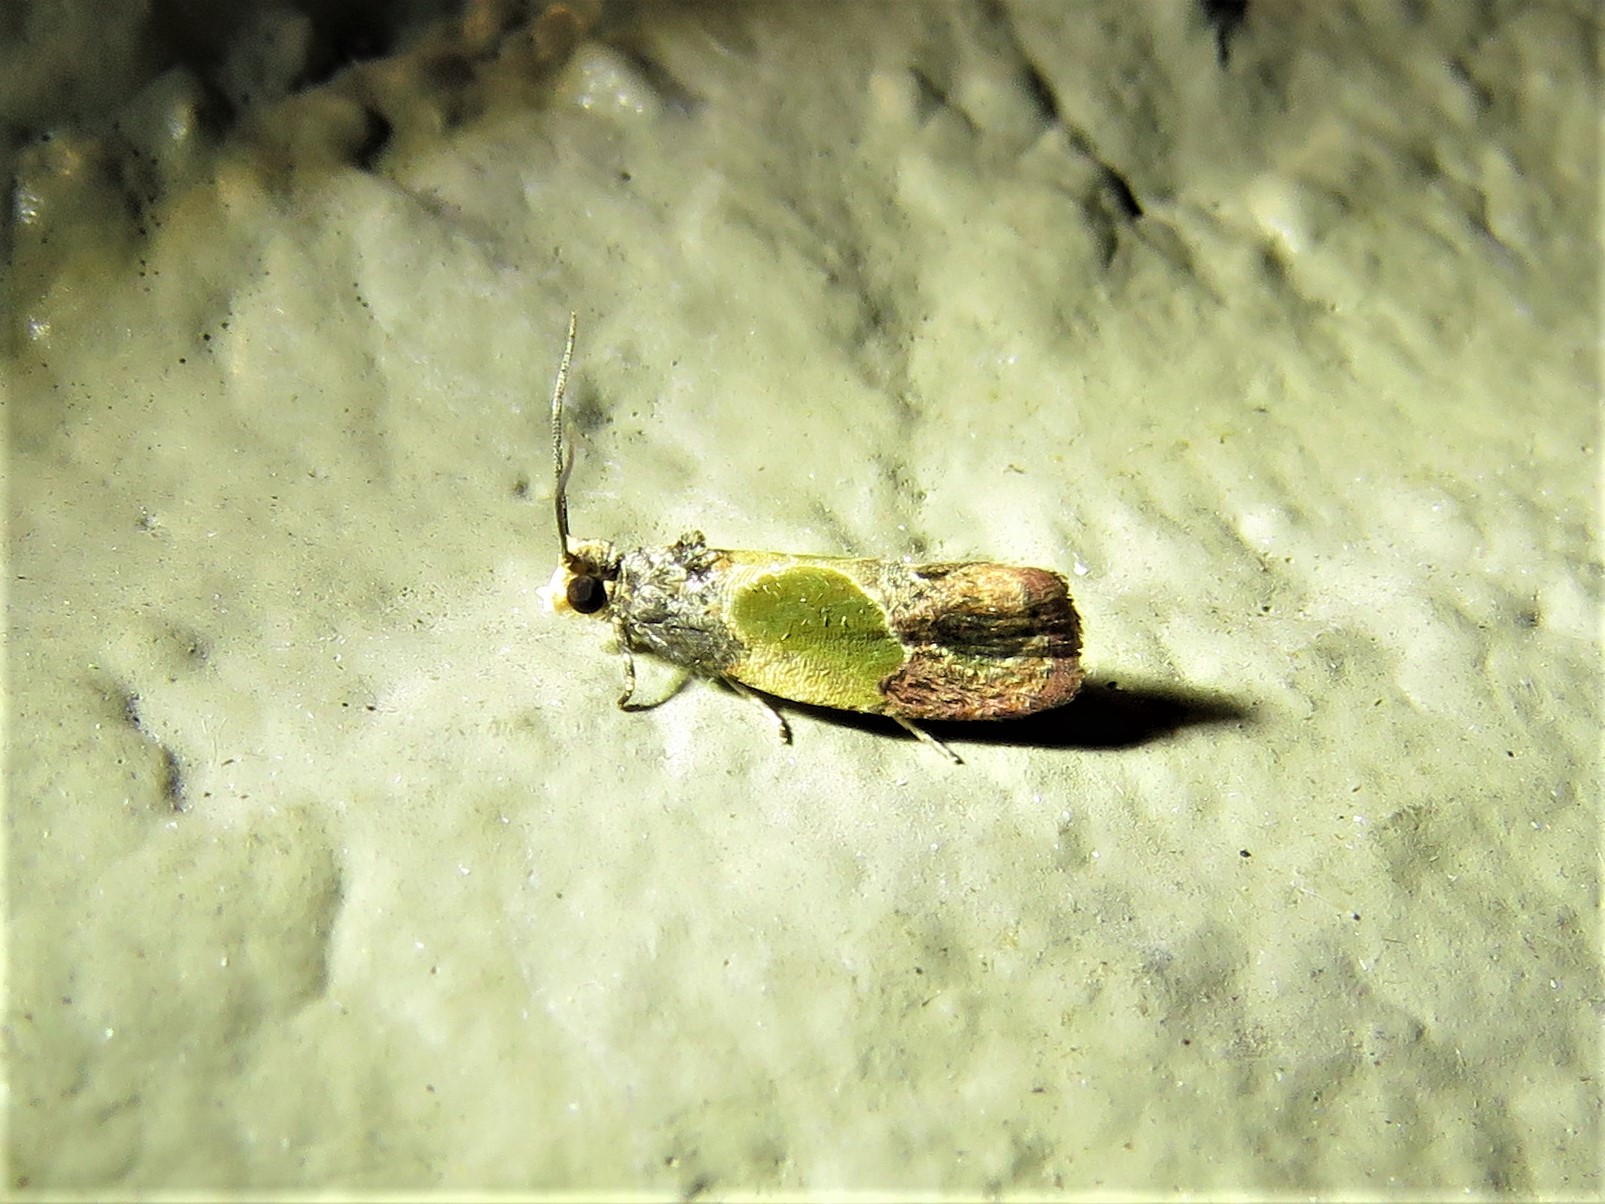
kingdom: Animalia
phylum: Arthropoda
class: Insecta
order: Lepidoptera
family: Tortricidae
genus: Eumarozia
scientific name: Eumarozia malachitana
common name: Sculptured moth
